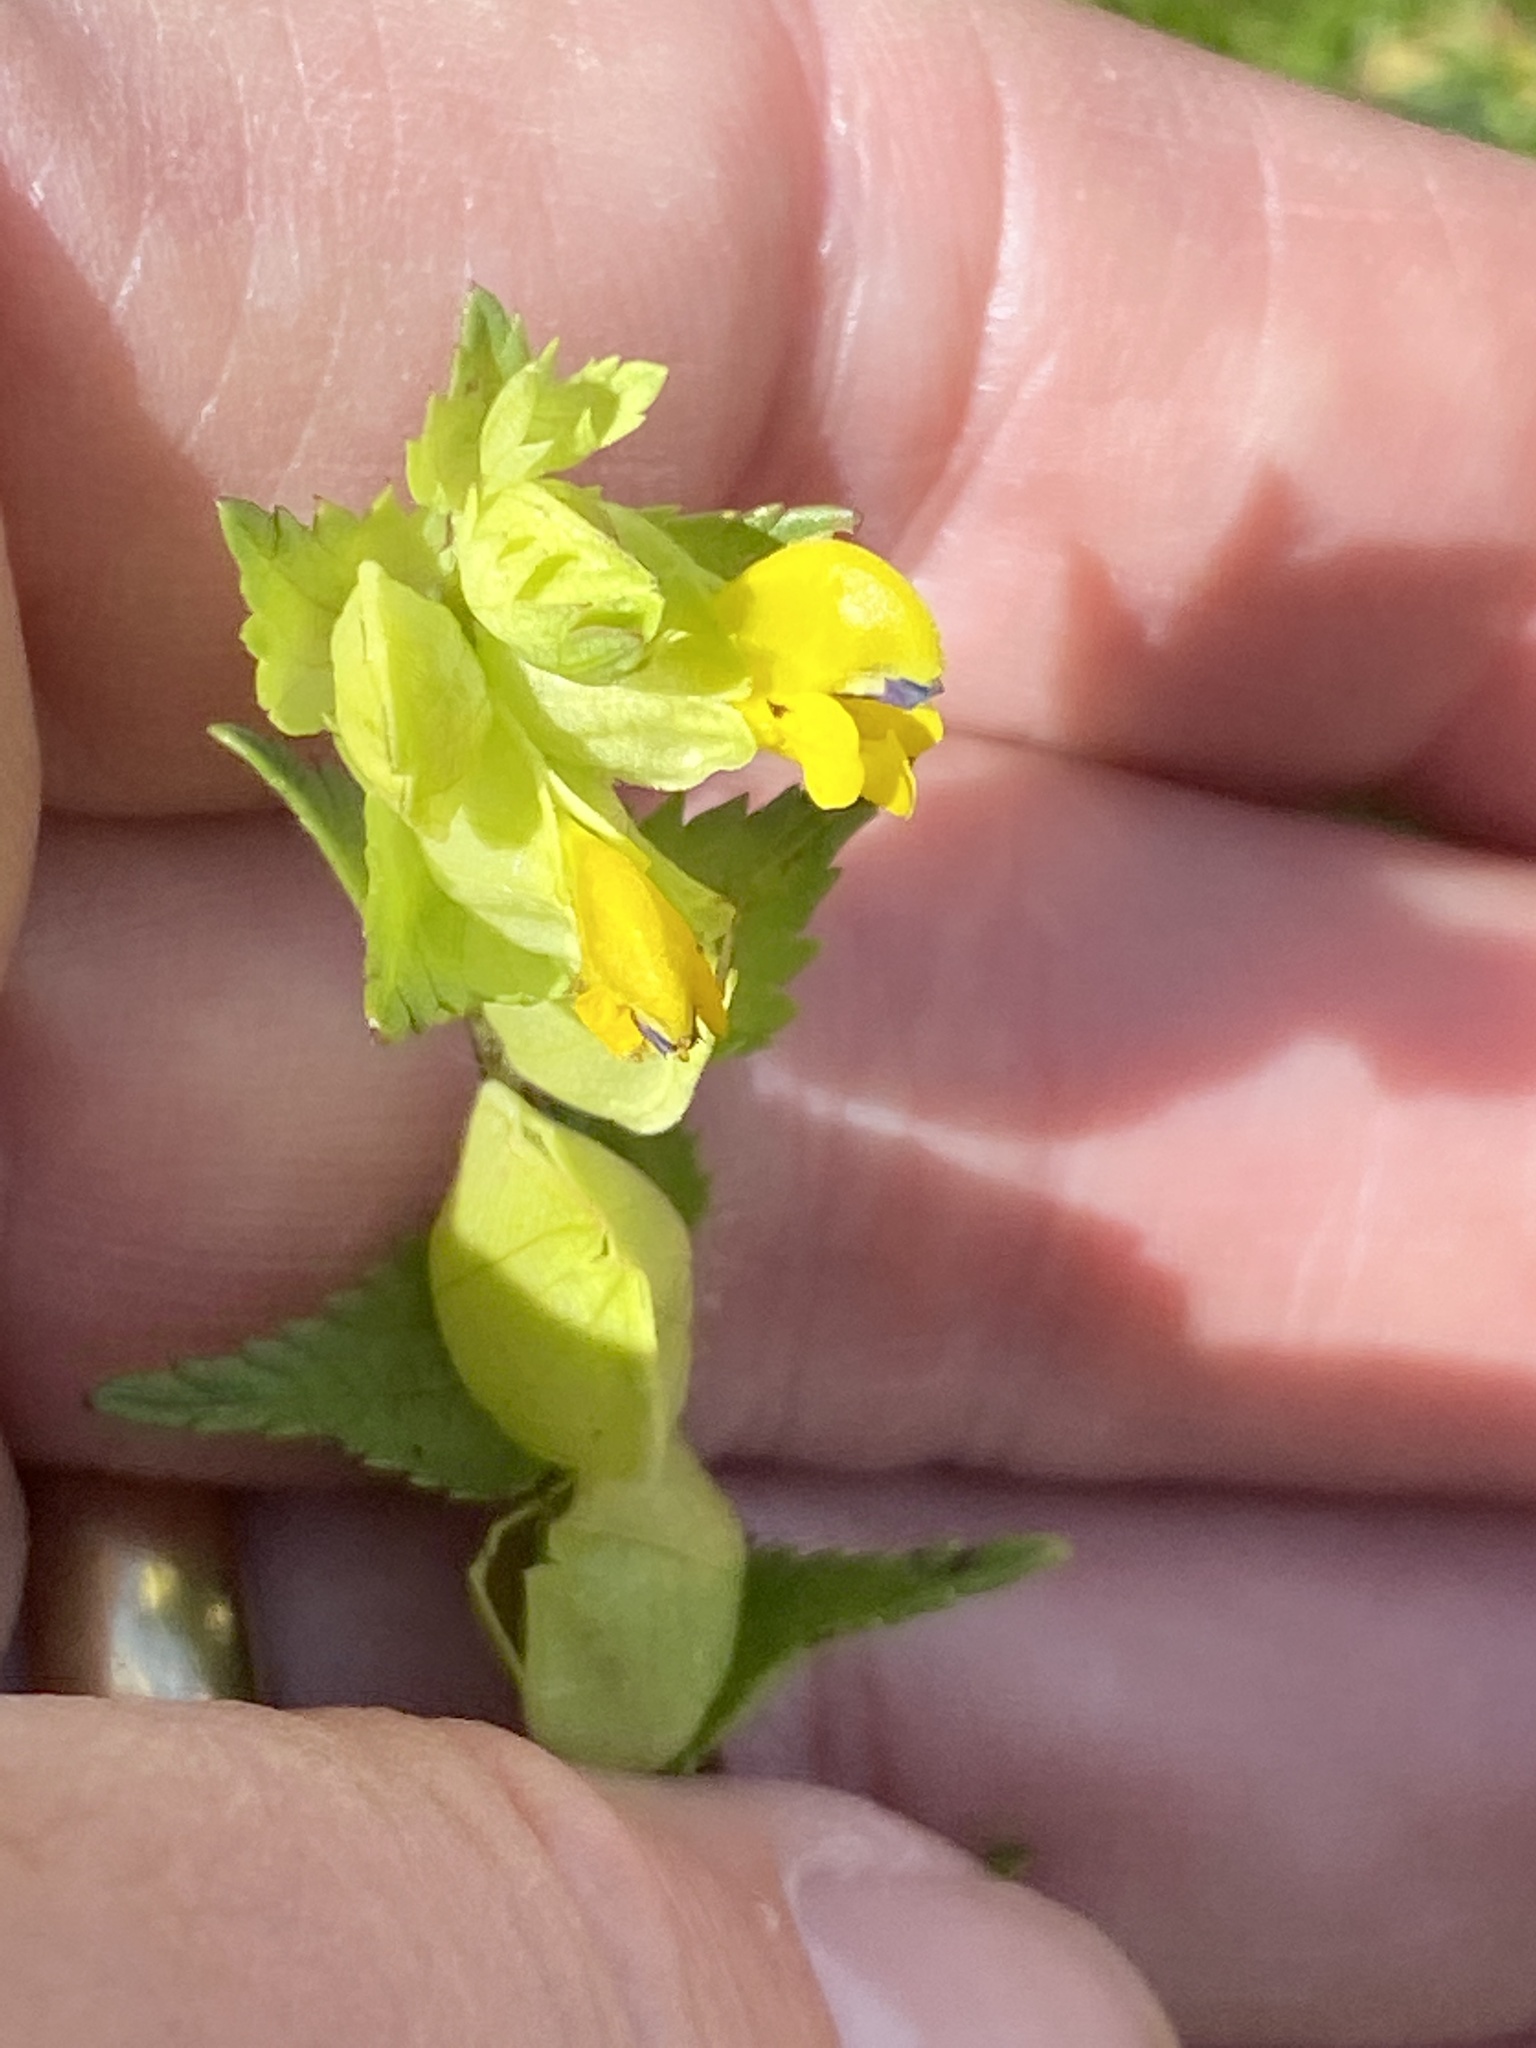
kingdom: Plantae
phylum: Tracheophyta
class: Magnoliopsida
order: Lamiales
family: Orobanchaceae
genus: Rhinanthus
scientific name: Rhinanthus minor
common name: Yellow-rattle
